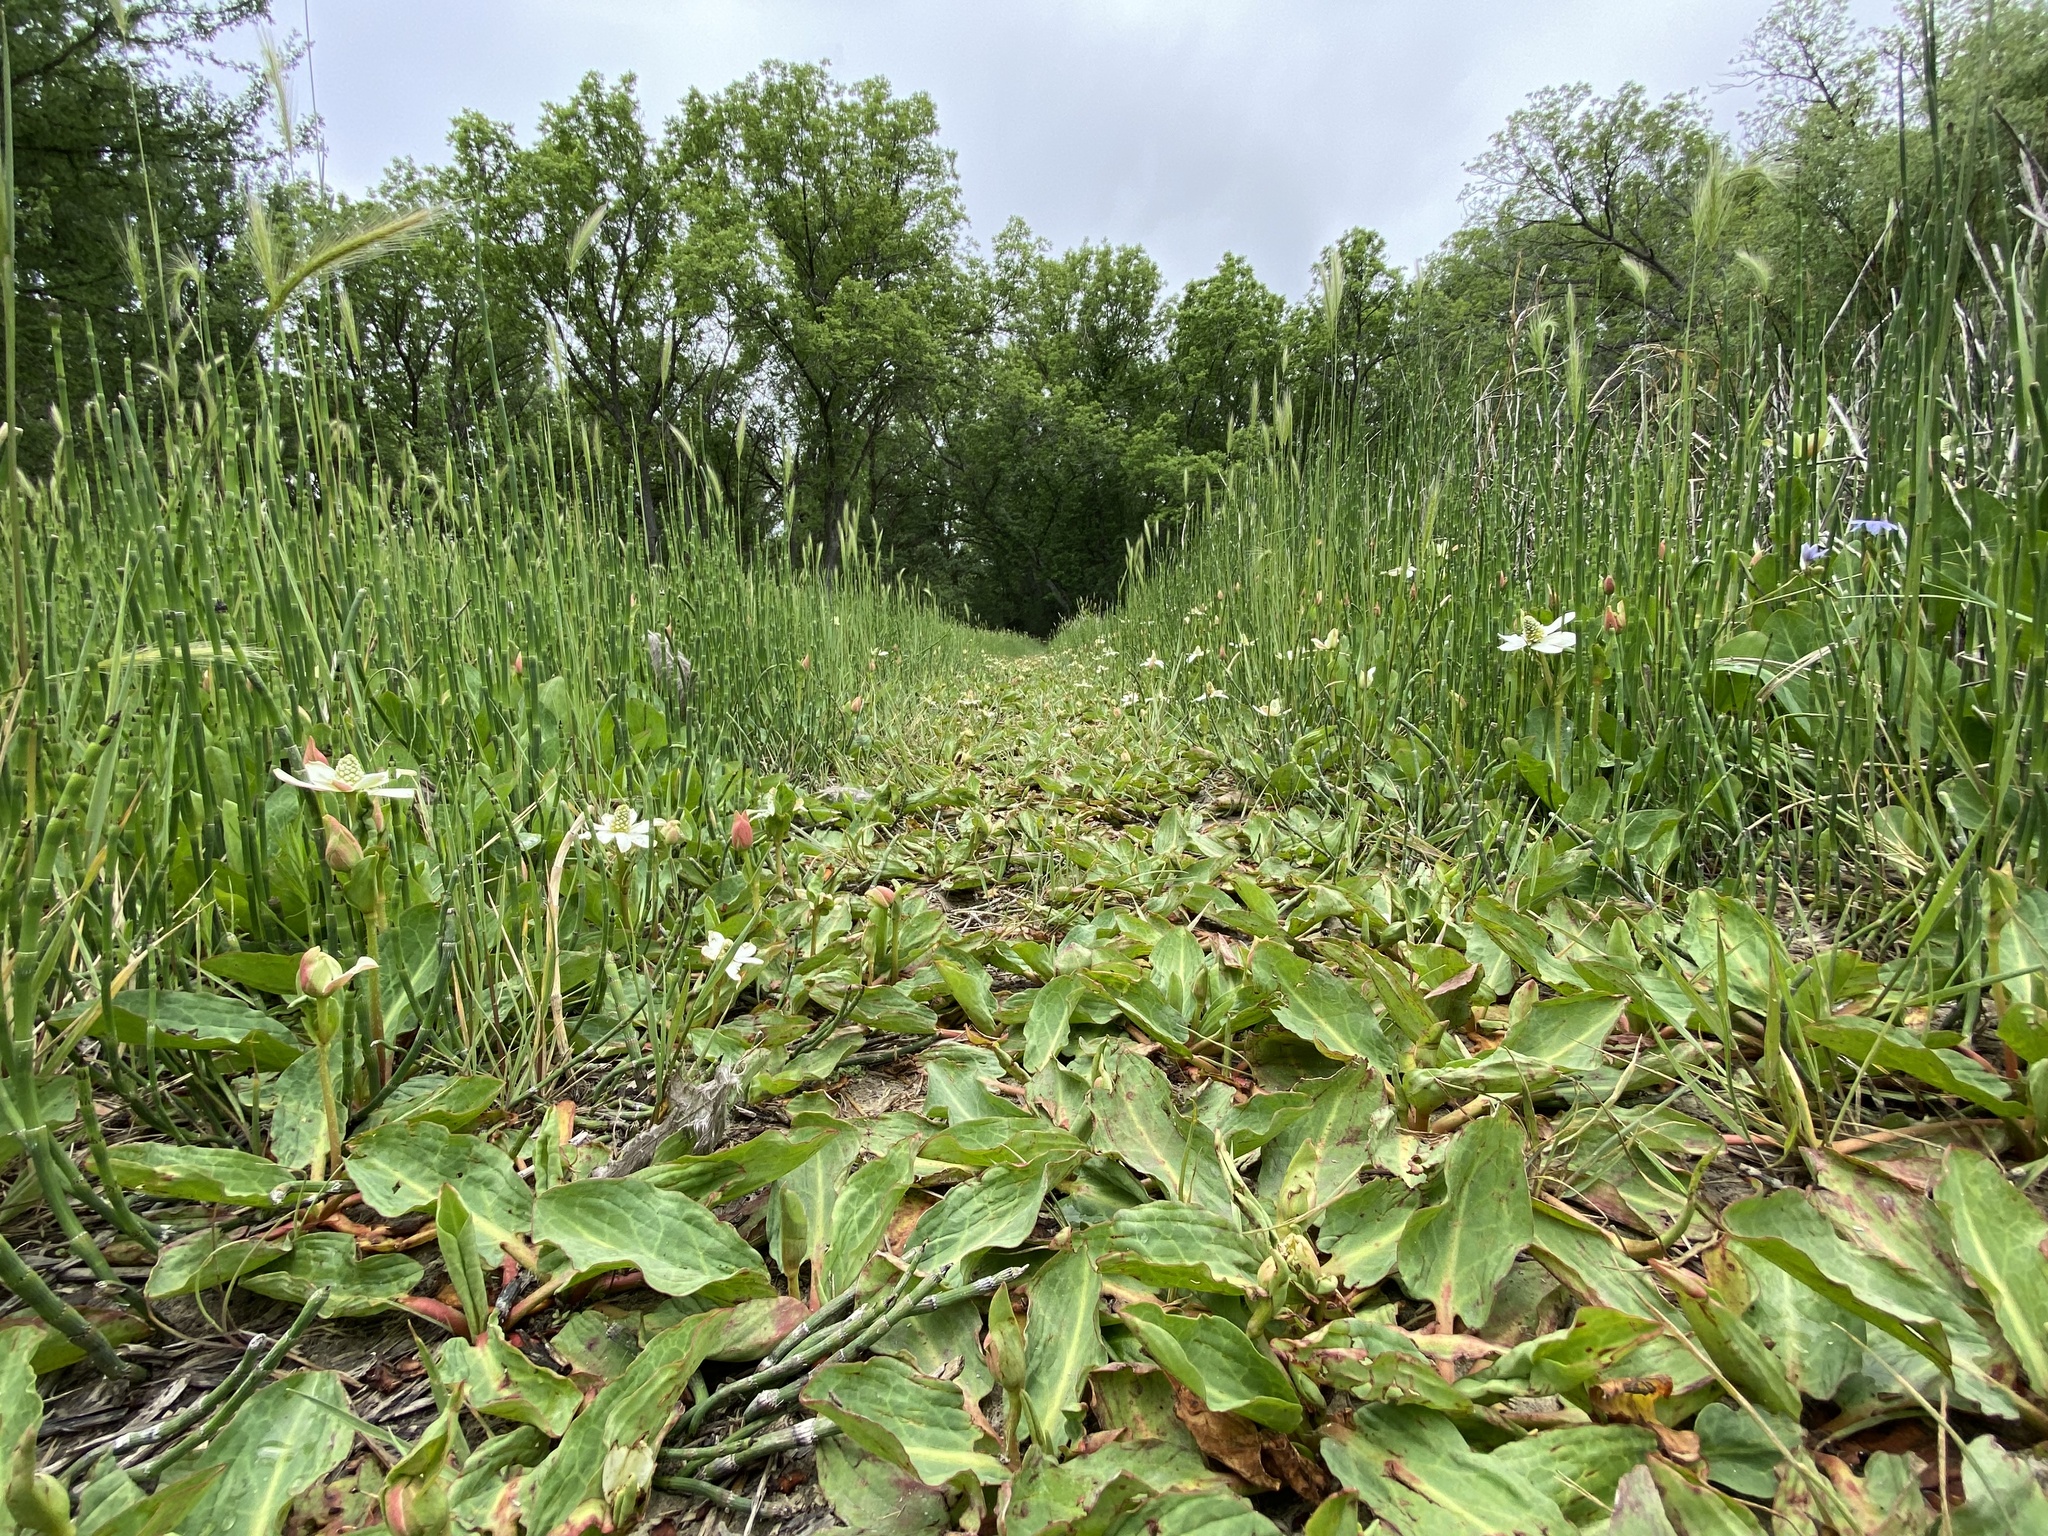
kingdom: Plantae
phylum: Tracheophyta
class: Magnoliopsida
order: Piperales
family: Saururaceae
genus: Anemopsis
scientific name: Anemopsis californica
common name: Apache-beads
